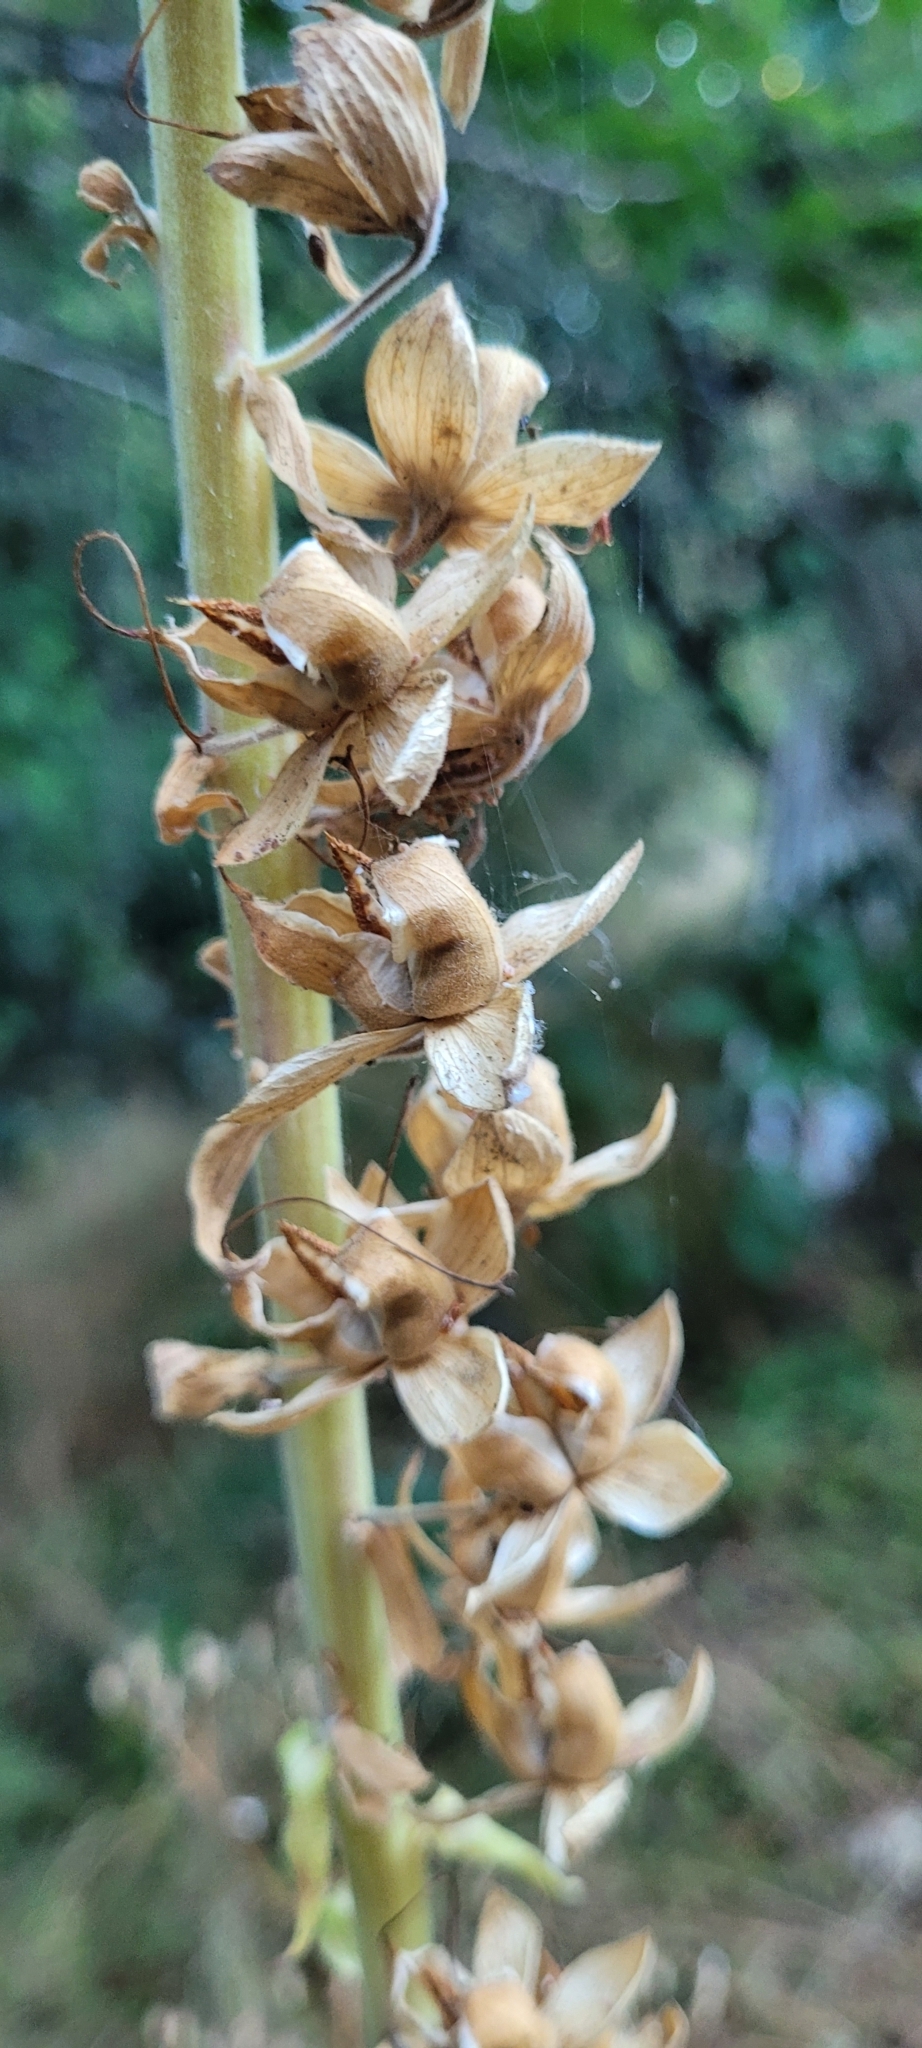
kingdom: Plantae
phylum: Tracheophyta
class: Magnoliopsida
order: Lamiales
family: Plantaginaceae
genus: Digitalis
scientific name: Digitalis purpurea
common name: Foxglove
